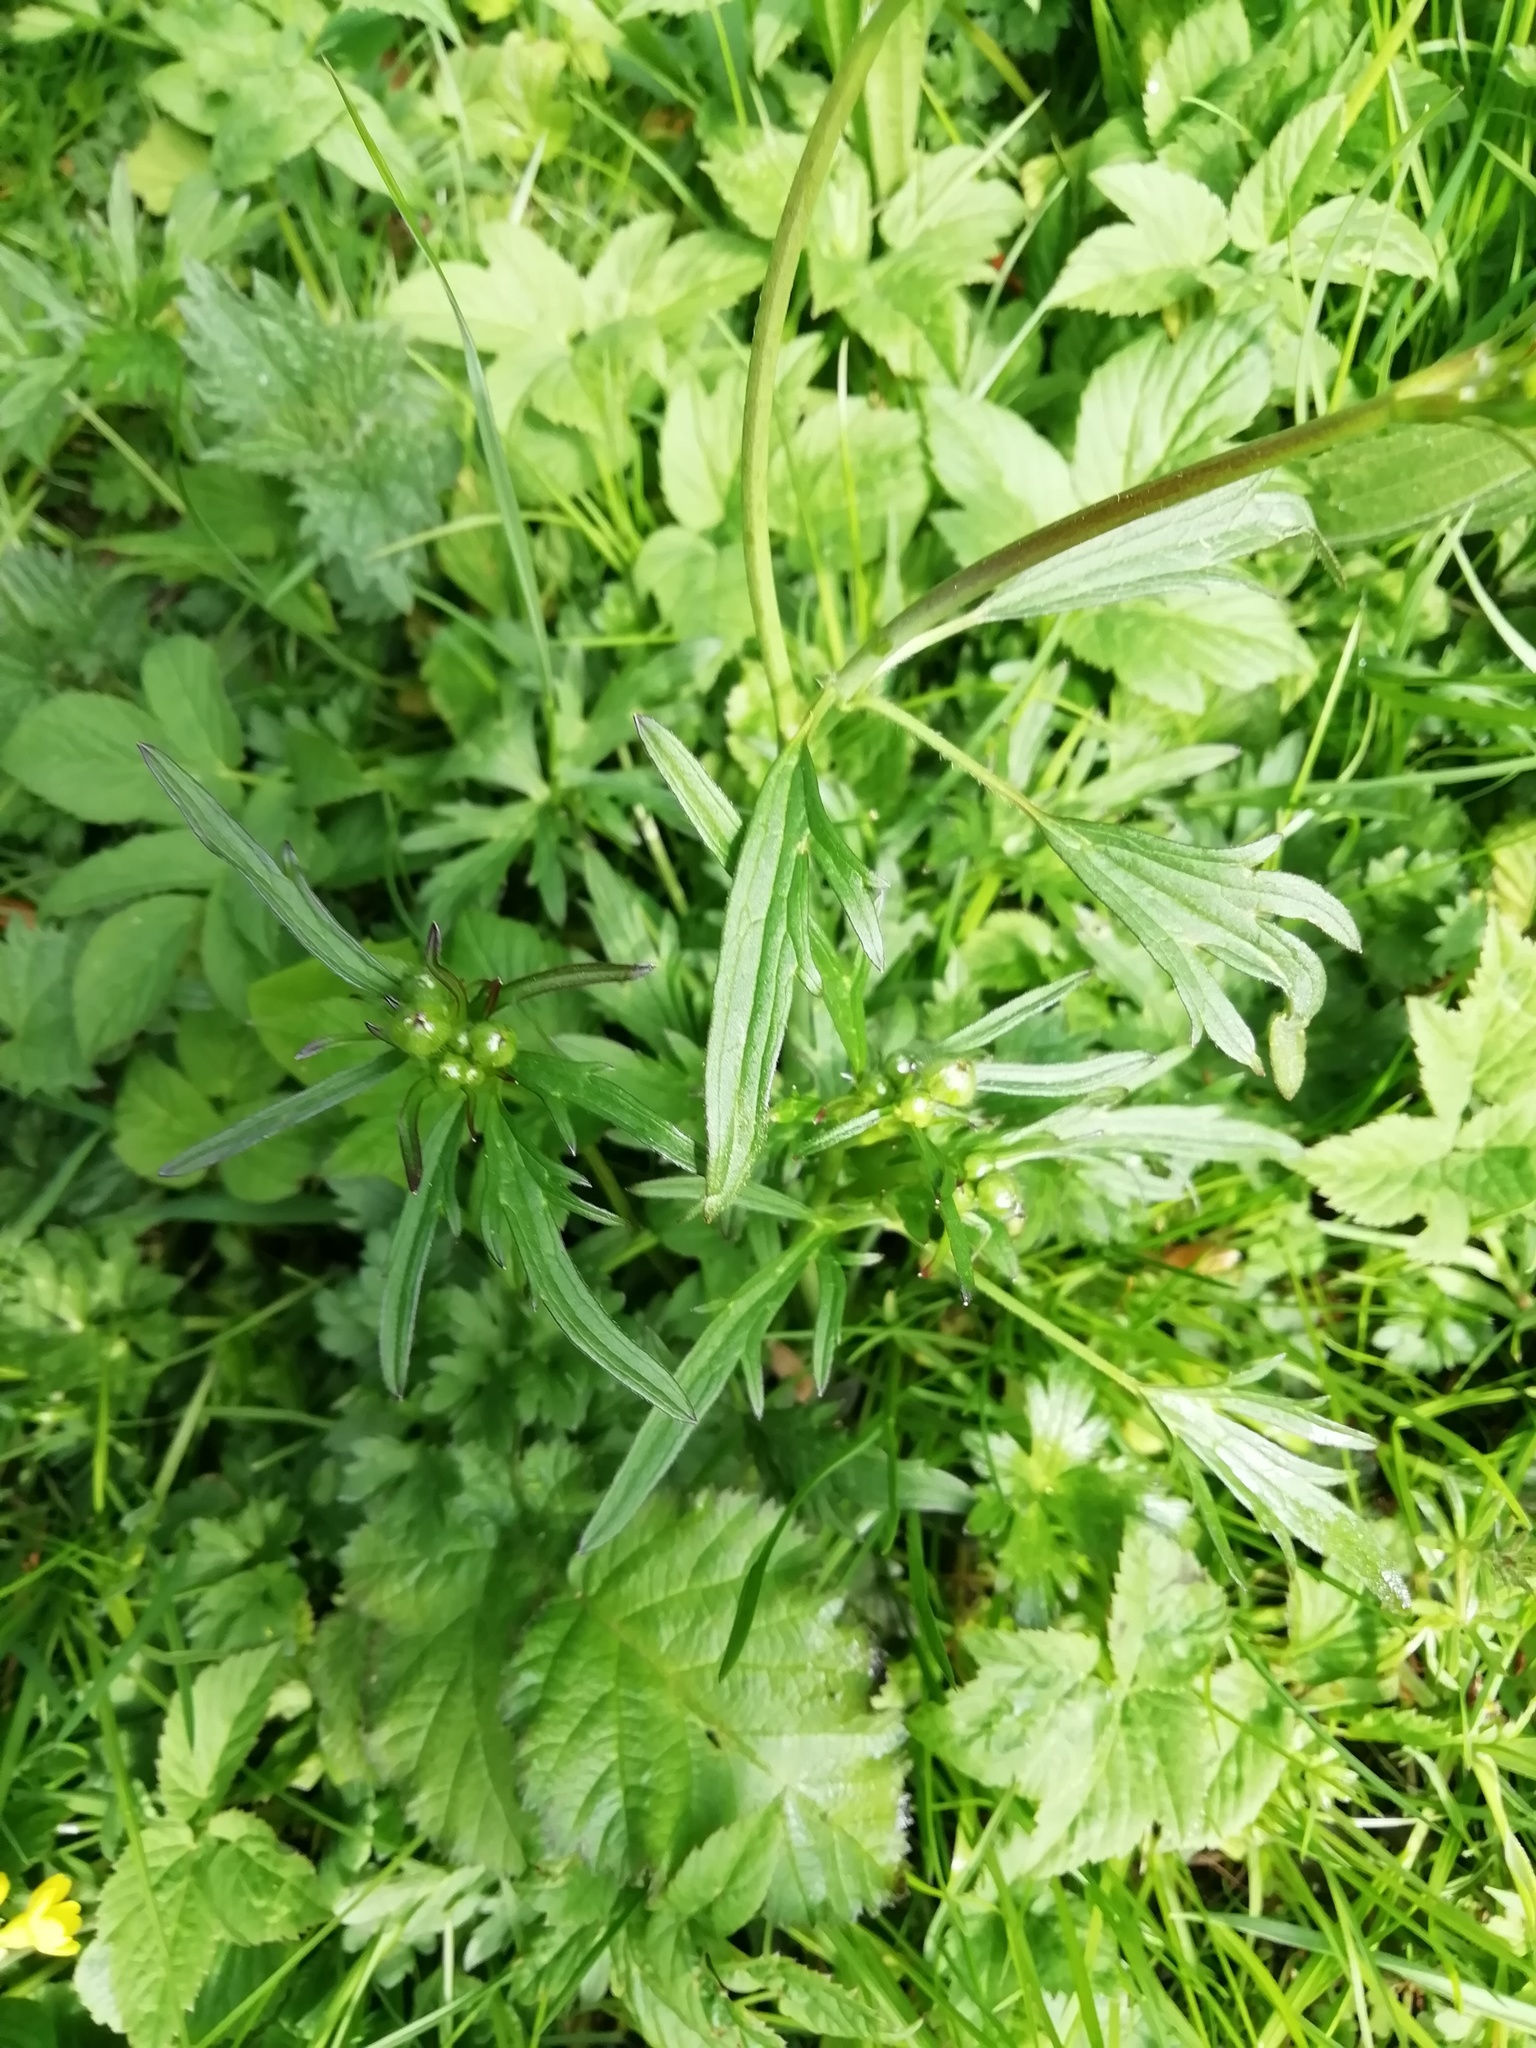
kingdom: Plantae
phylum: Tracheophyta
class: Magnoliopsida
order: Ranunculales
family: Ranunculaceae
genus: Ranunculus
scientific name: Ranunculus acris
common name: Meadow buttercup
